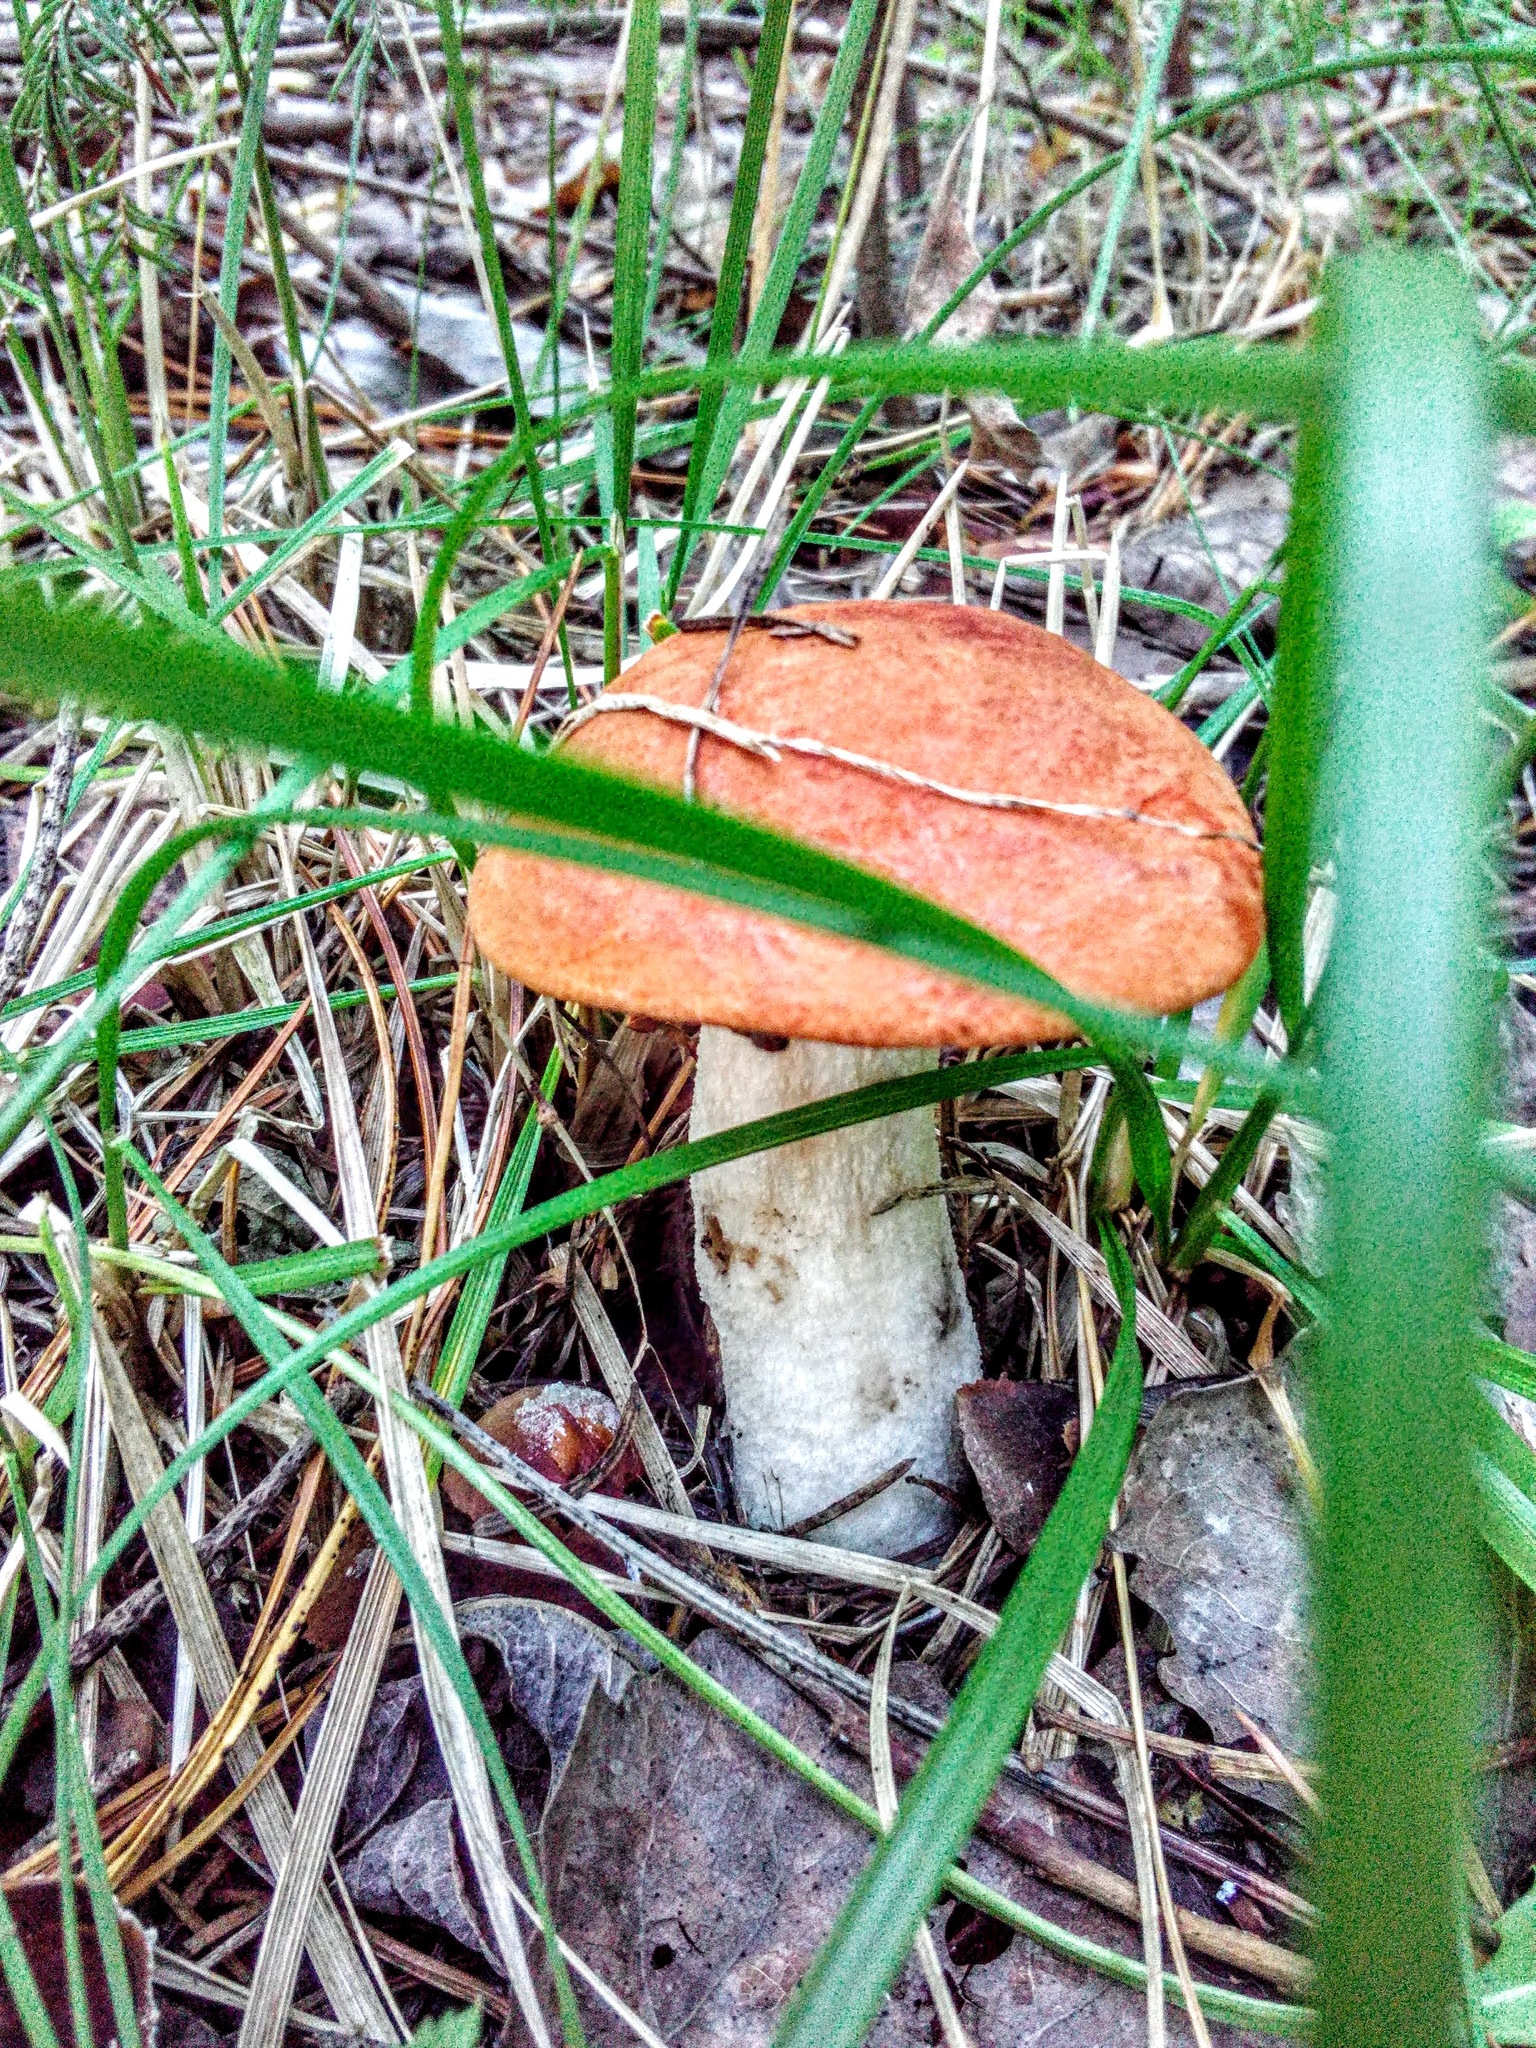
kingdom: Fungi
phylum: Basidiomycota
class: Agaricomycetes
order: Boletales
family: Boletaceae
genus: Leccinum
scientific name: Leccinum albostipitatum
